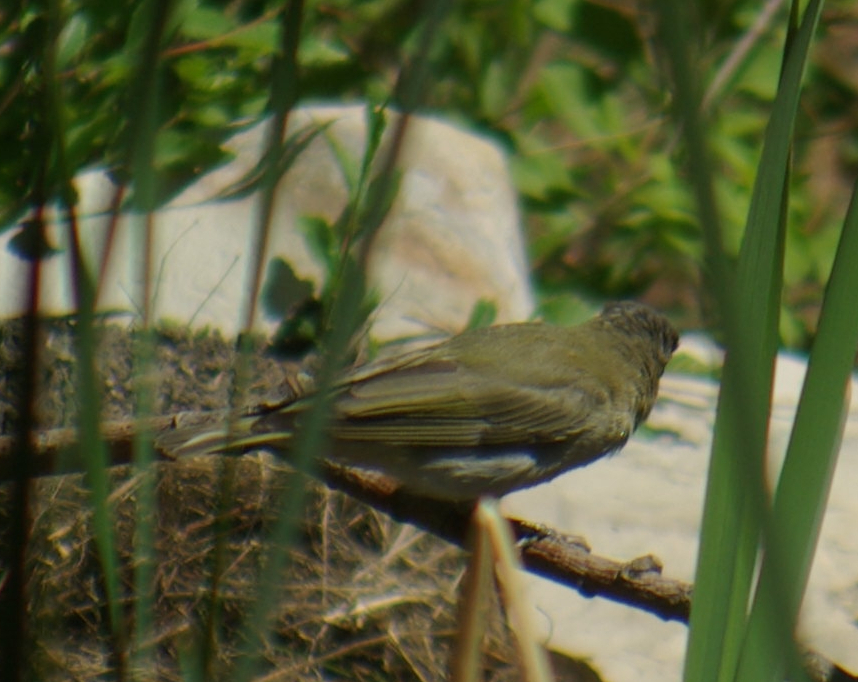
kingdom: Animalia
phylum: Chordata
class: Aves
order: Passeriformes
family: Vireonidae
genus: Vireo
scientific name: Vireo olivaceus
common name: Red-eyed vireo
